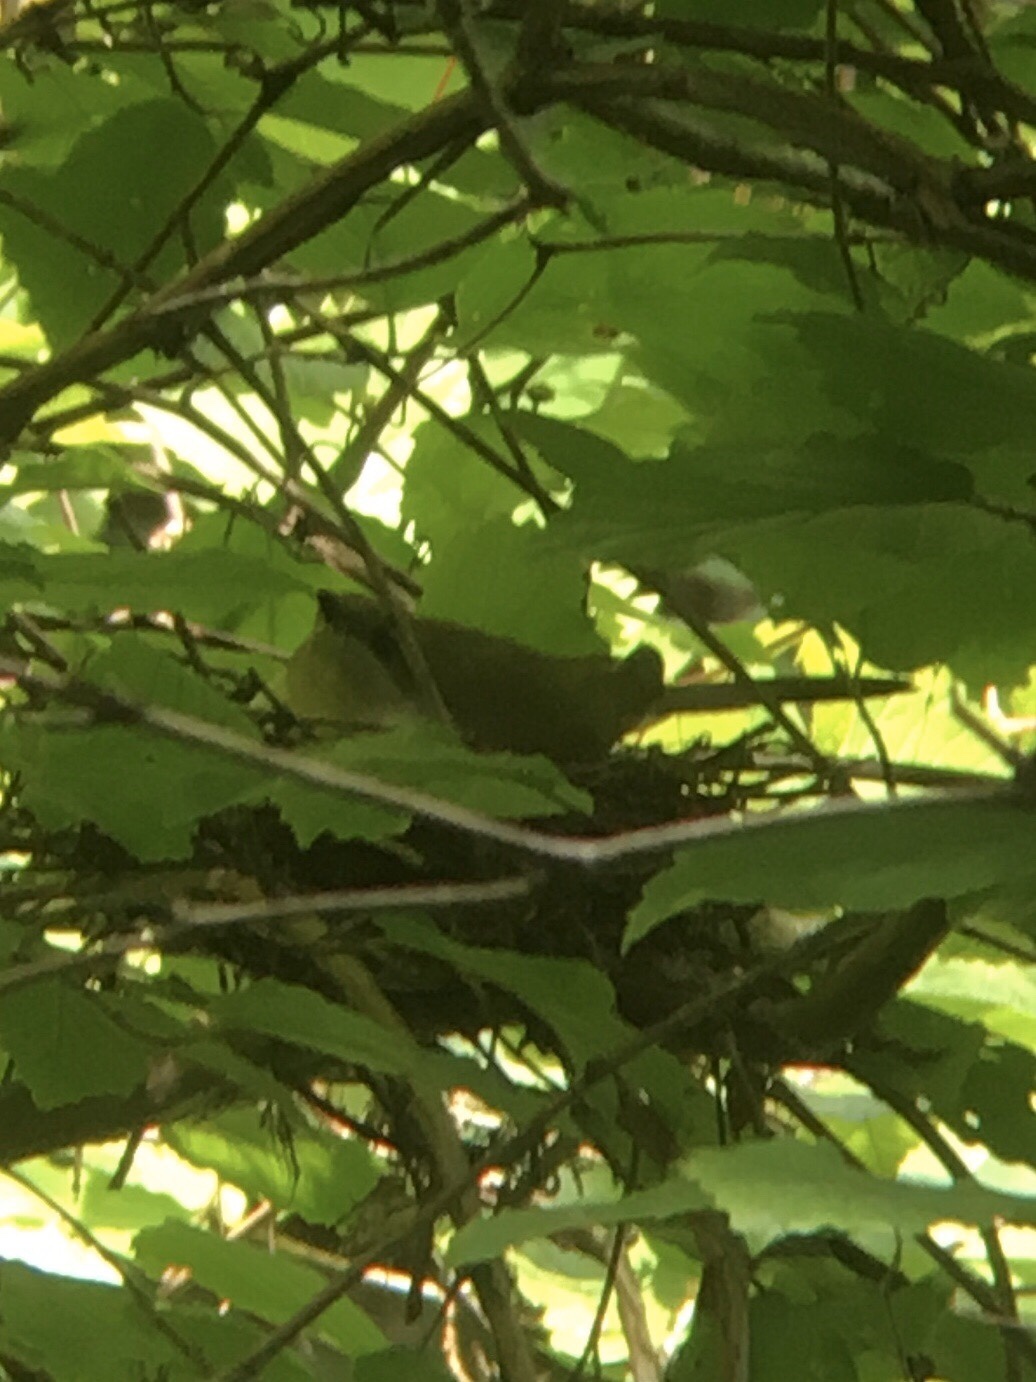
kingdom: Animalia
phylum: Chordata
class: Aves
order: Cuculiformes
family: Cuculidae
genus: Coccyzus
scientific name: Coccyzus erythropthalmus
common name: Black-billed cuckoo
